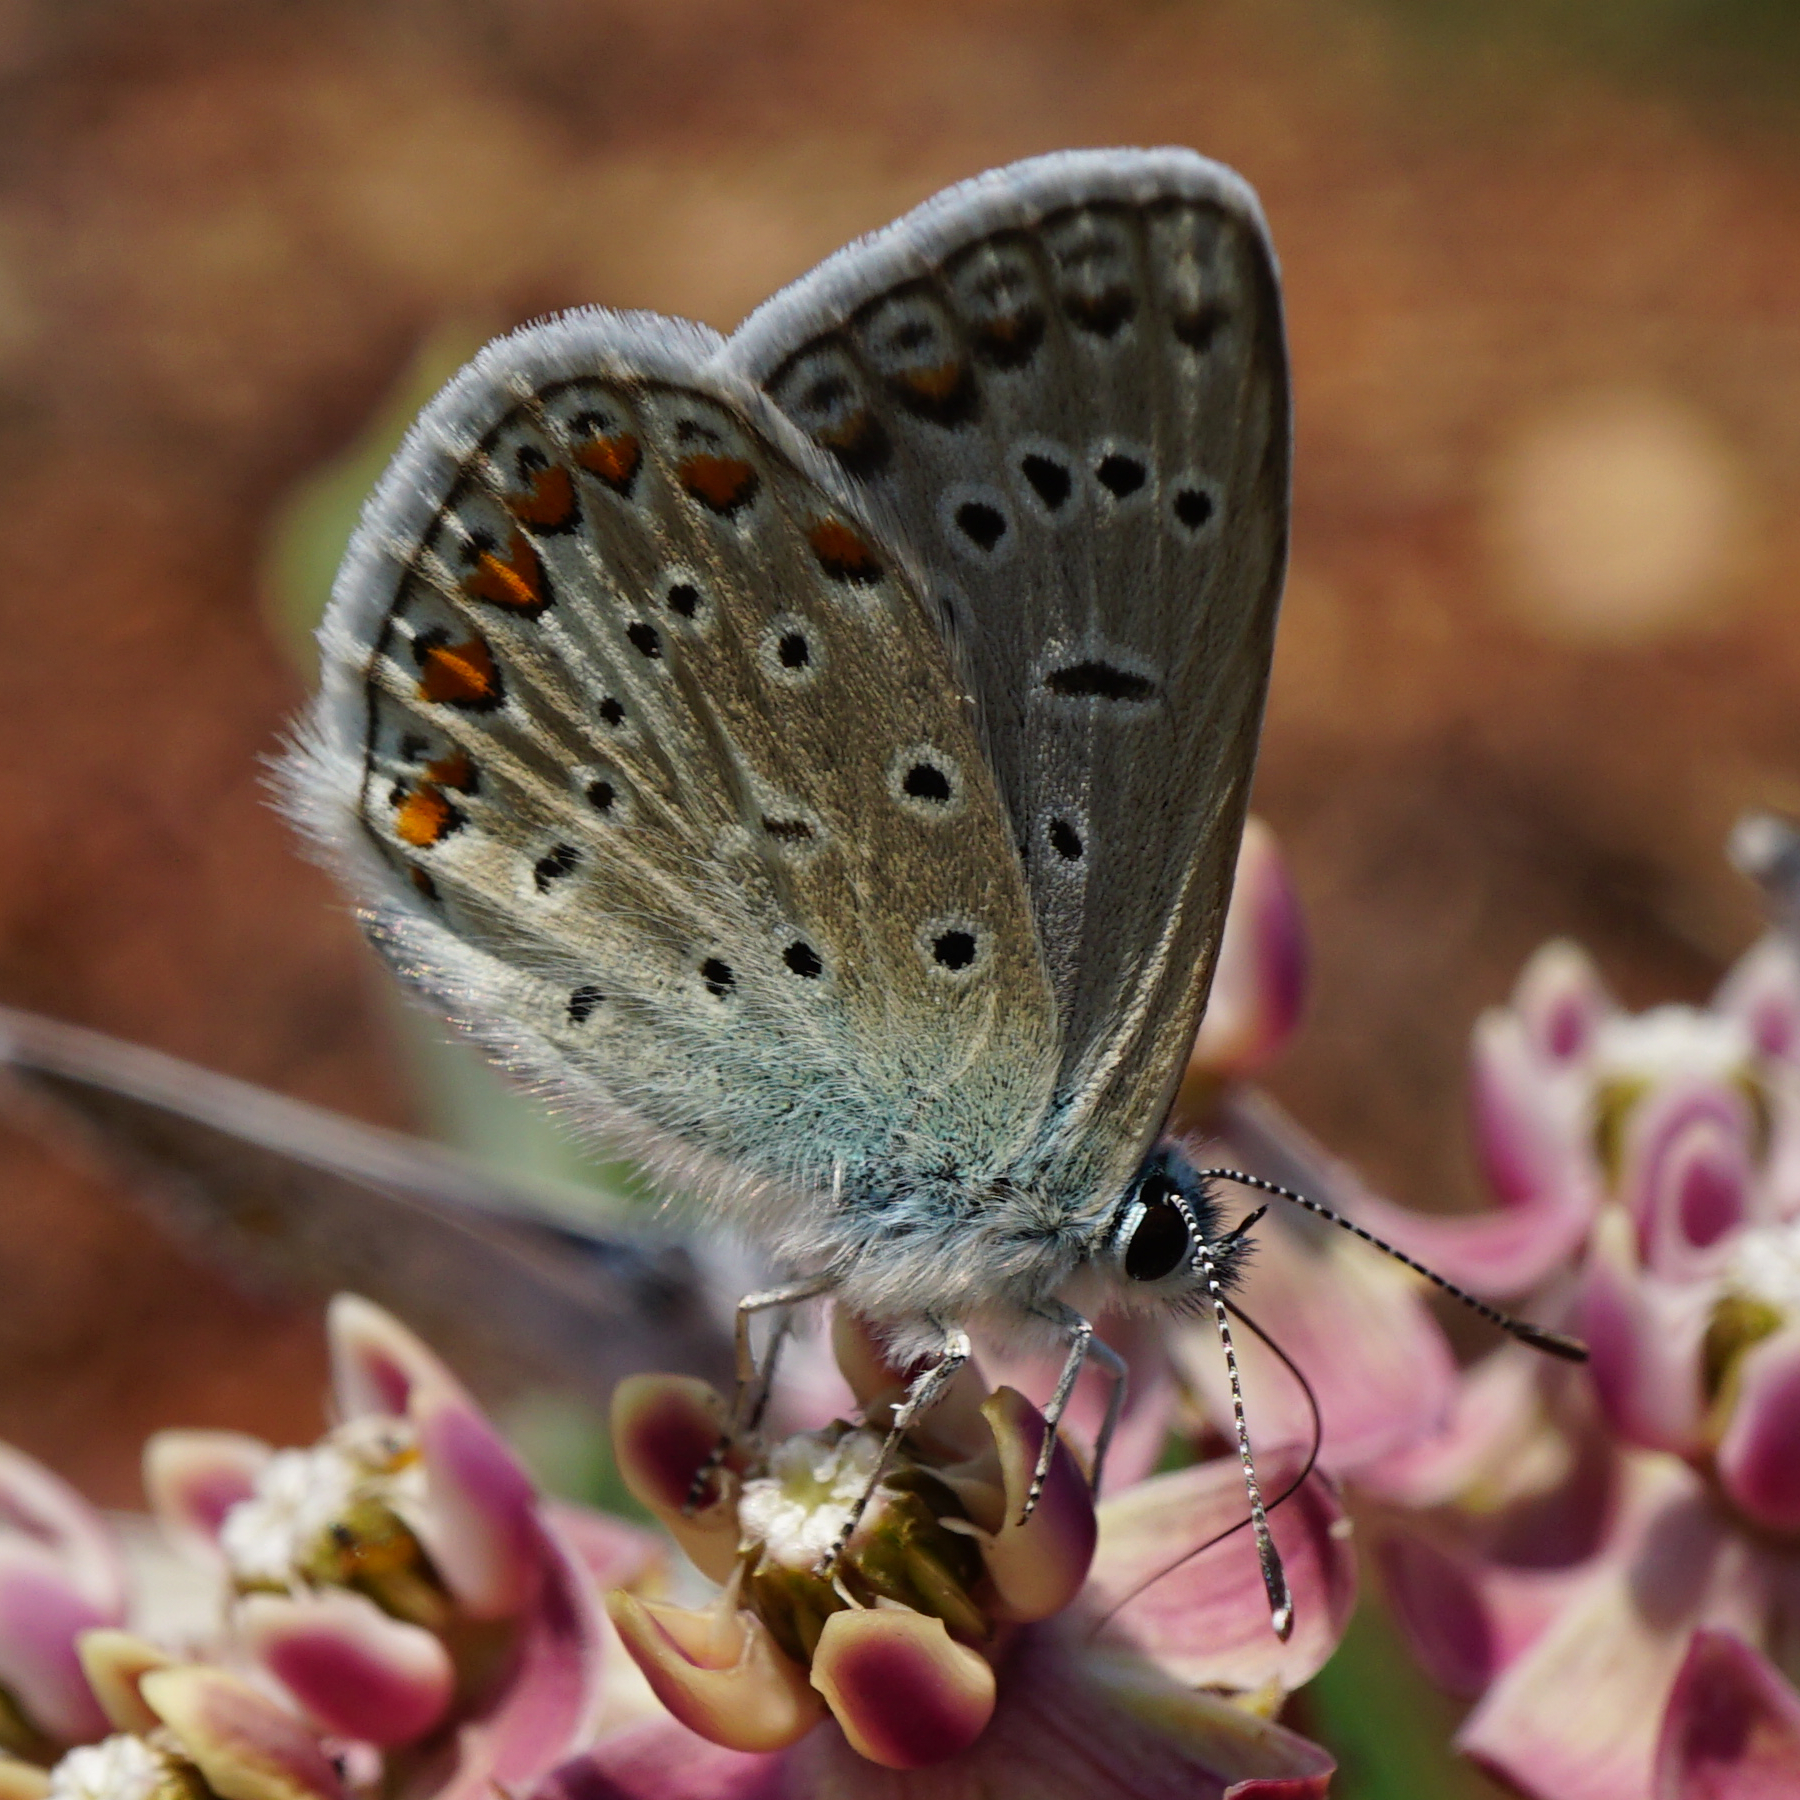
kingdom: Animalia
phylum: Arthropoda
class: Insecta
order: Lepidoptera
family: Lycaenidae
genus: Polyommatus
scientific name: Polyommatus icarus
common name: Common blue
